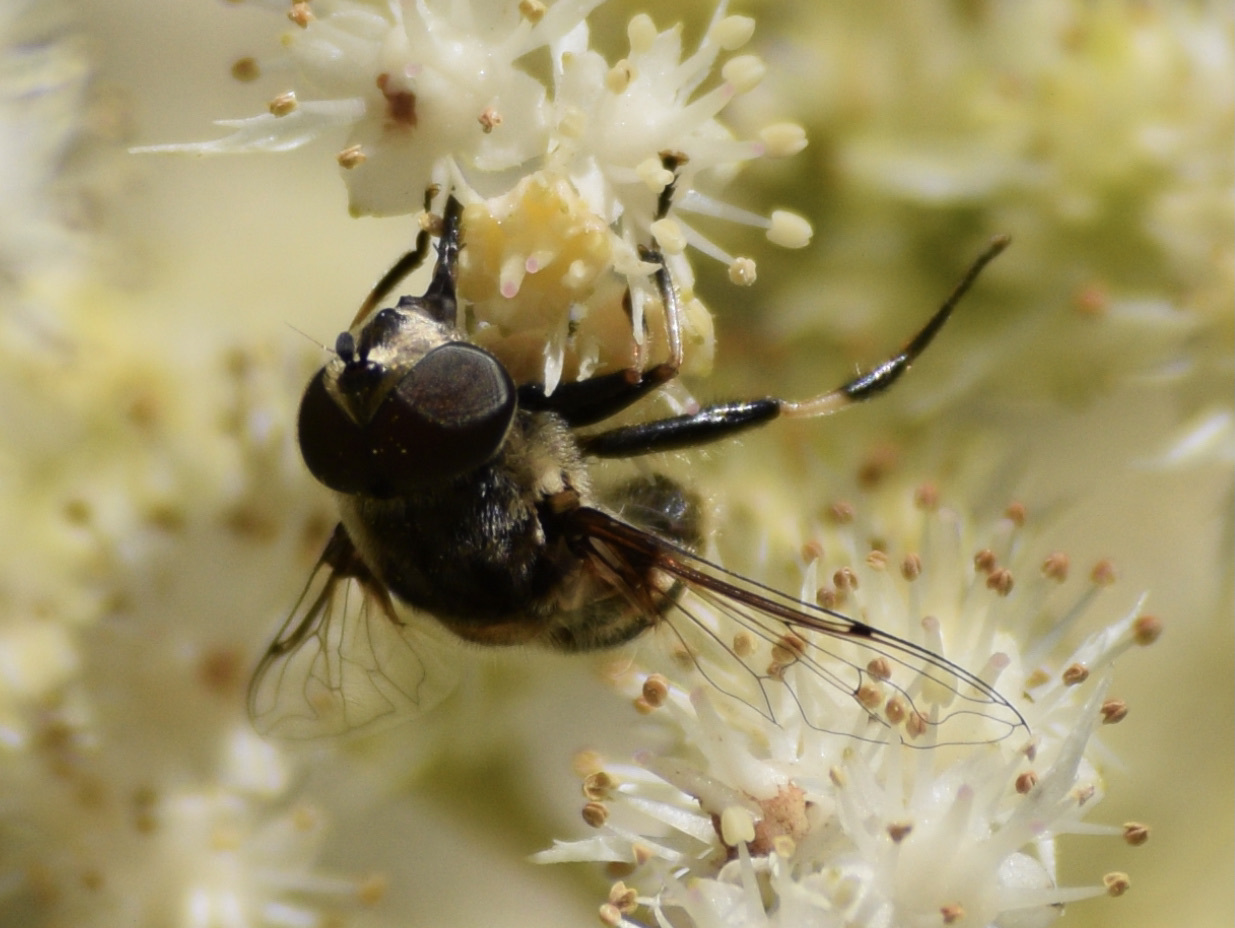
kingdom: Animalia
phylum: Arthropoda
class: Insecta
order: Diptera
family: Syrphidae
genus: Eristalis
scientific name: Eristalis dimidiata
